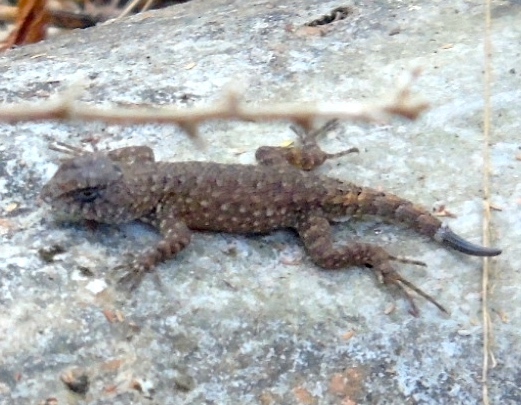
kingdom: Animalia
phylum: Chordata
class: Squamata
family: Phrynosomatidae
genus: Sceloporus
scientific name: Sceloporus nelsoni
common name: Nelson's spiny lizard
